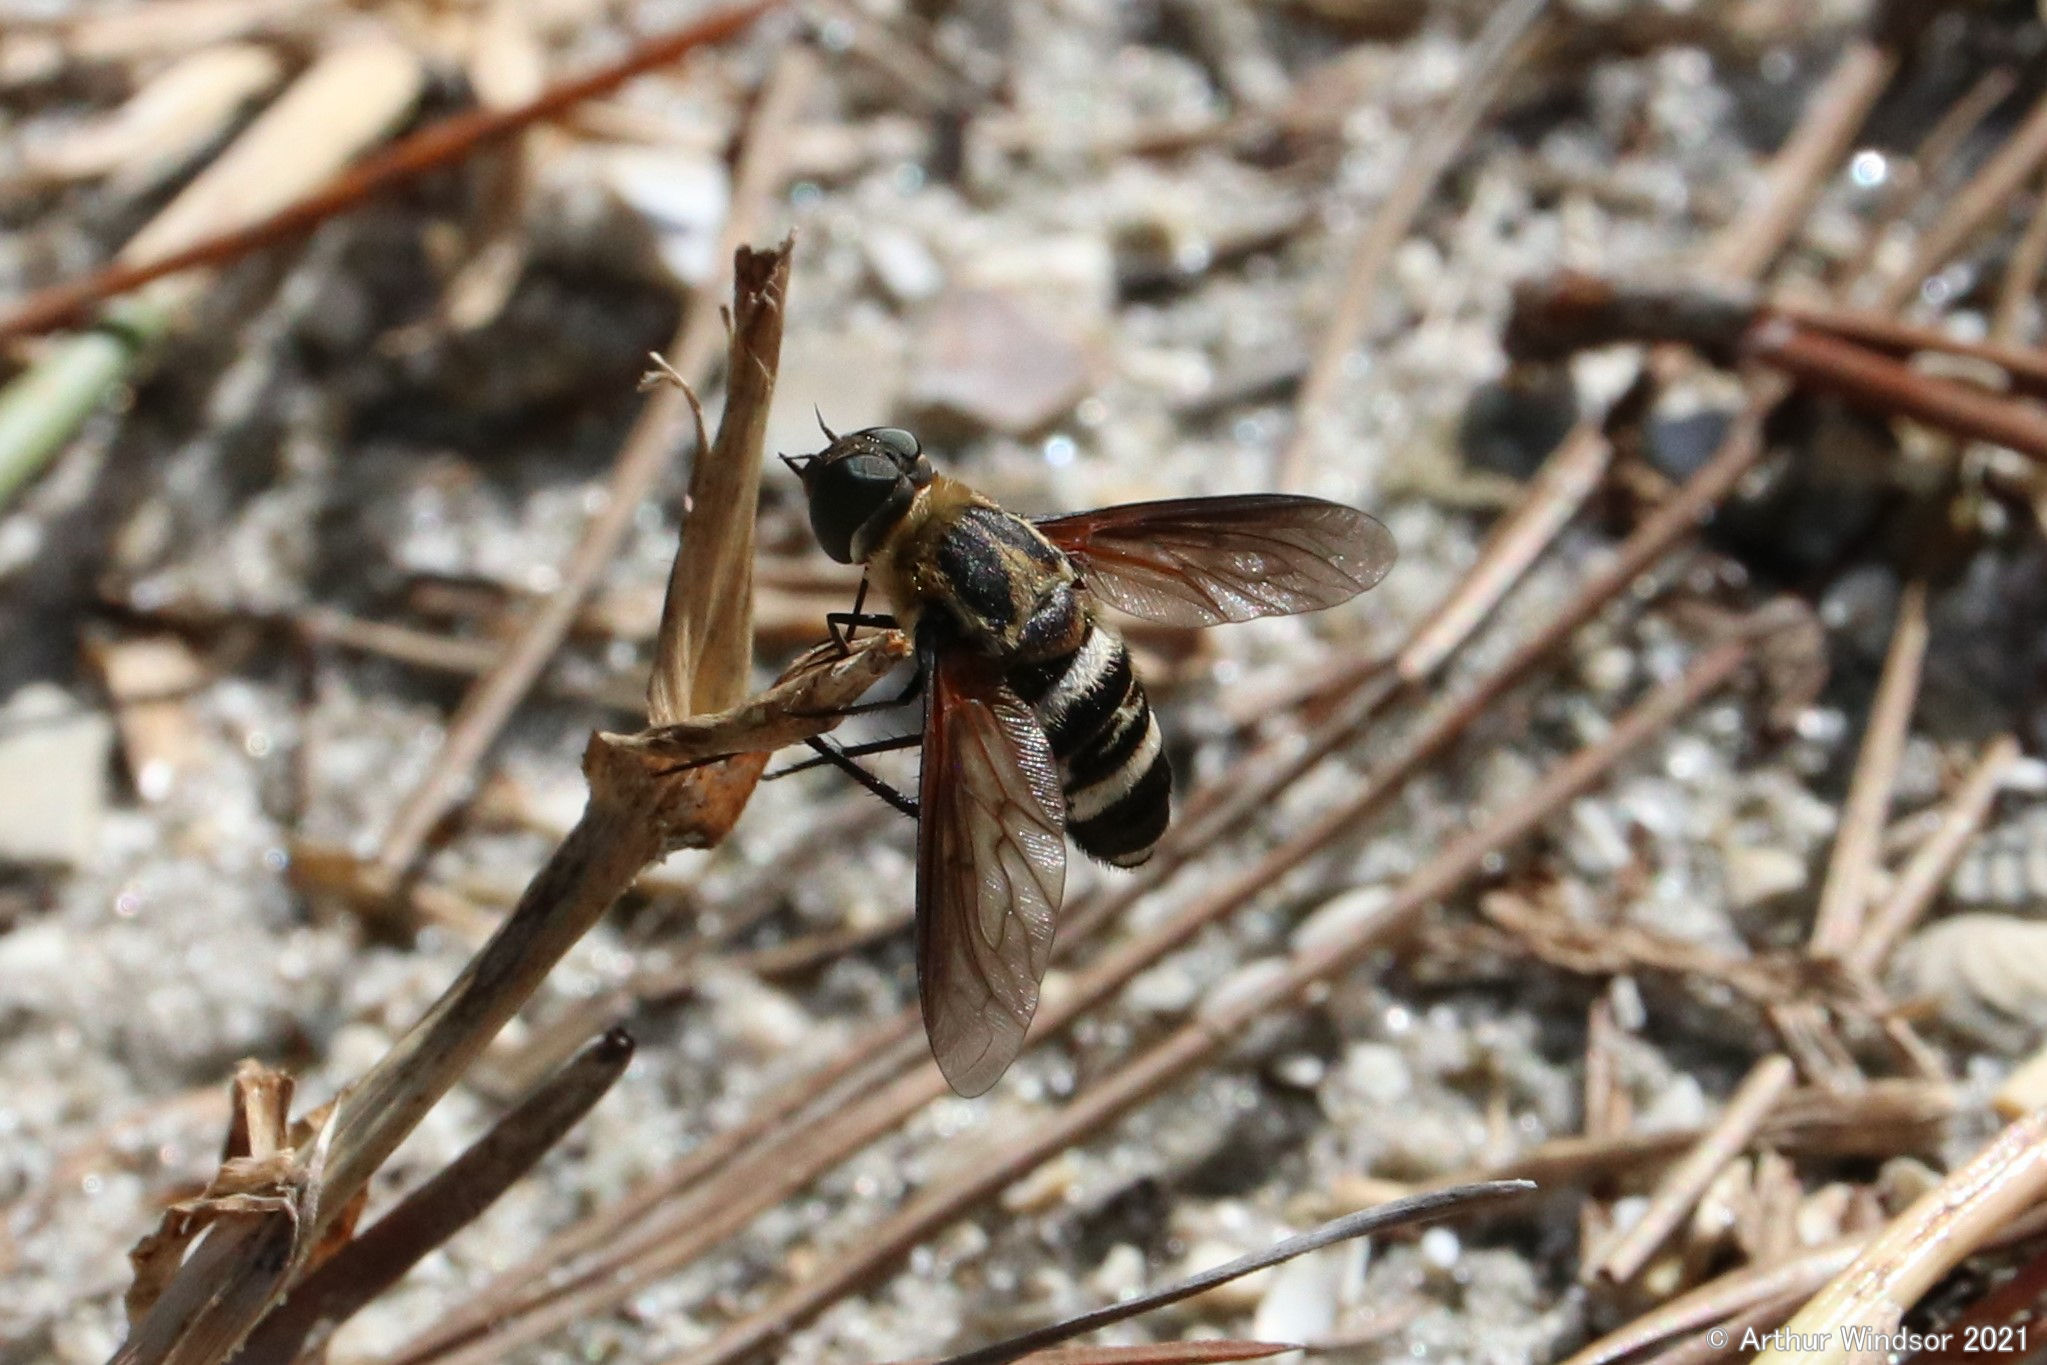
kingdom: Animalia
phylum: Arthropoda
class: Insecta
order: Diptera
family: Bombyliidae
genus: Exoprosopa
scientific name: Exoprosopa fasciata
